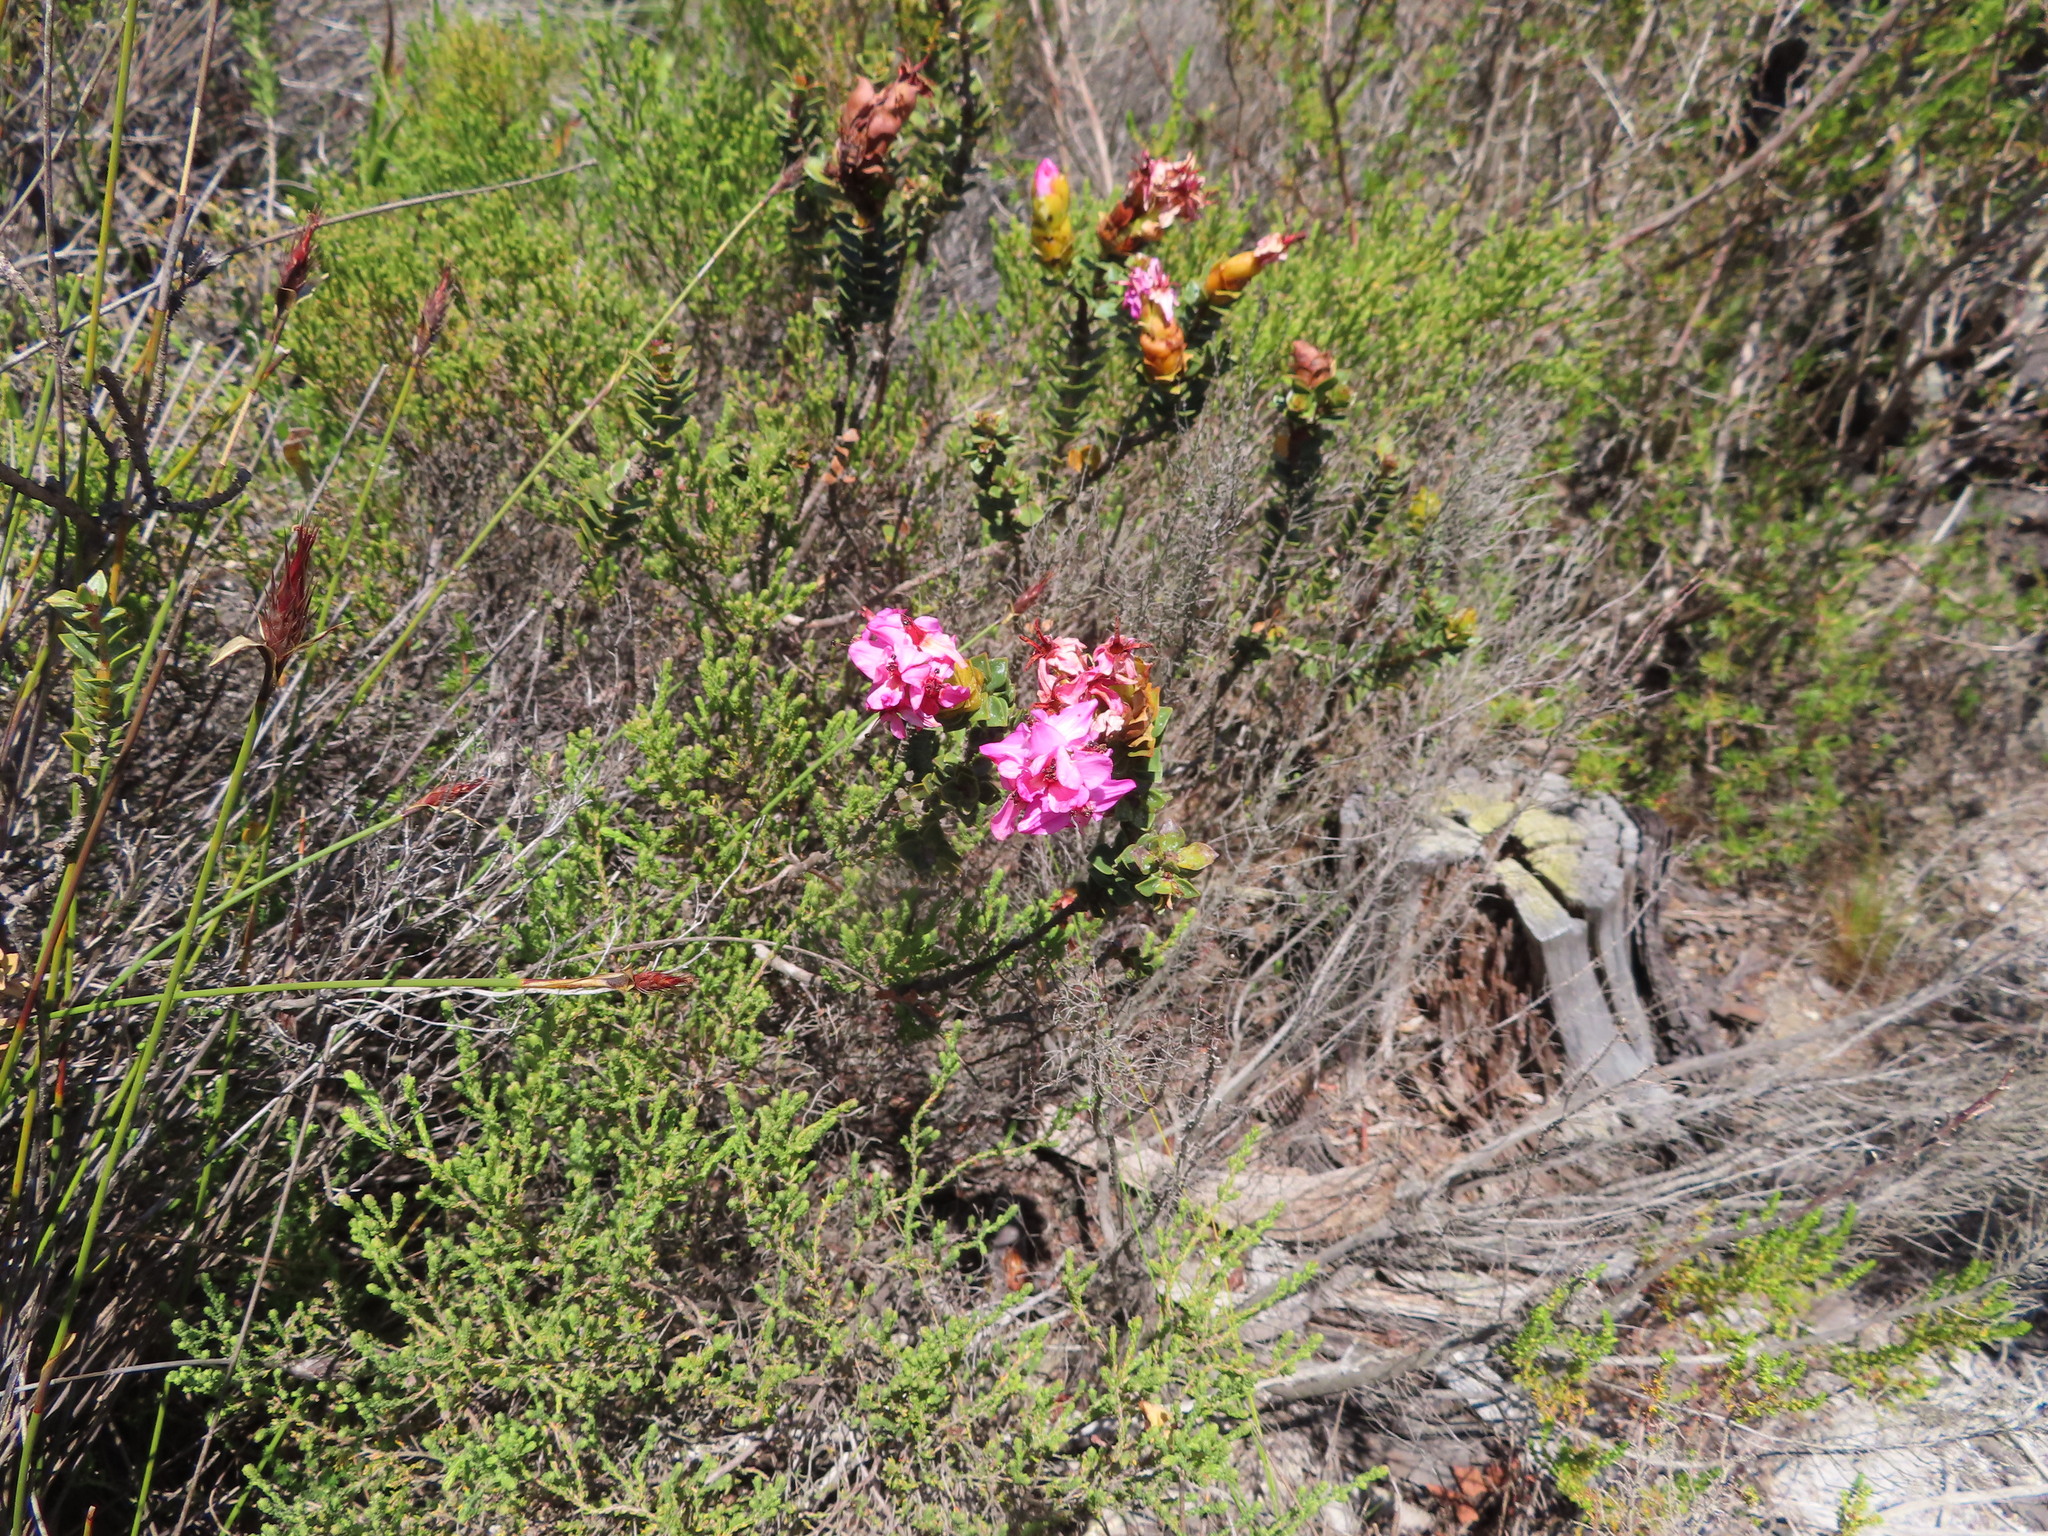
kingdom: Plantae
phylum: Tracheophyta
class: Magnoliopsida
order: Myrtales
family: Penaeaceae
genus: Saltera
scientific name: Saltera sarcocolla
